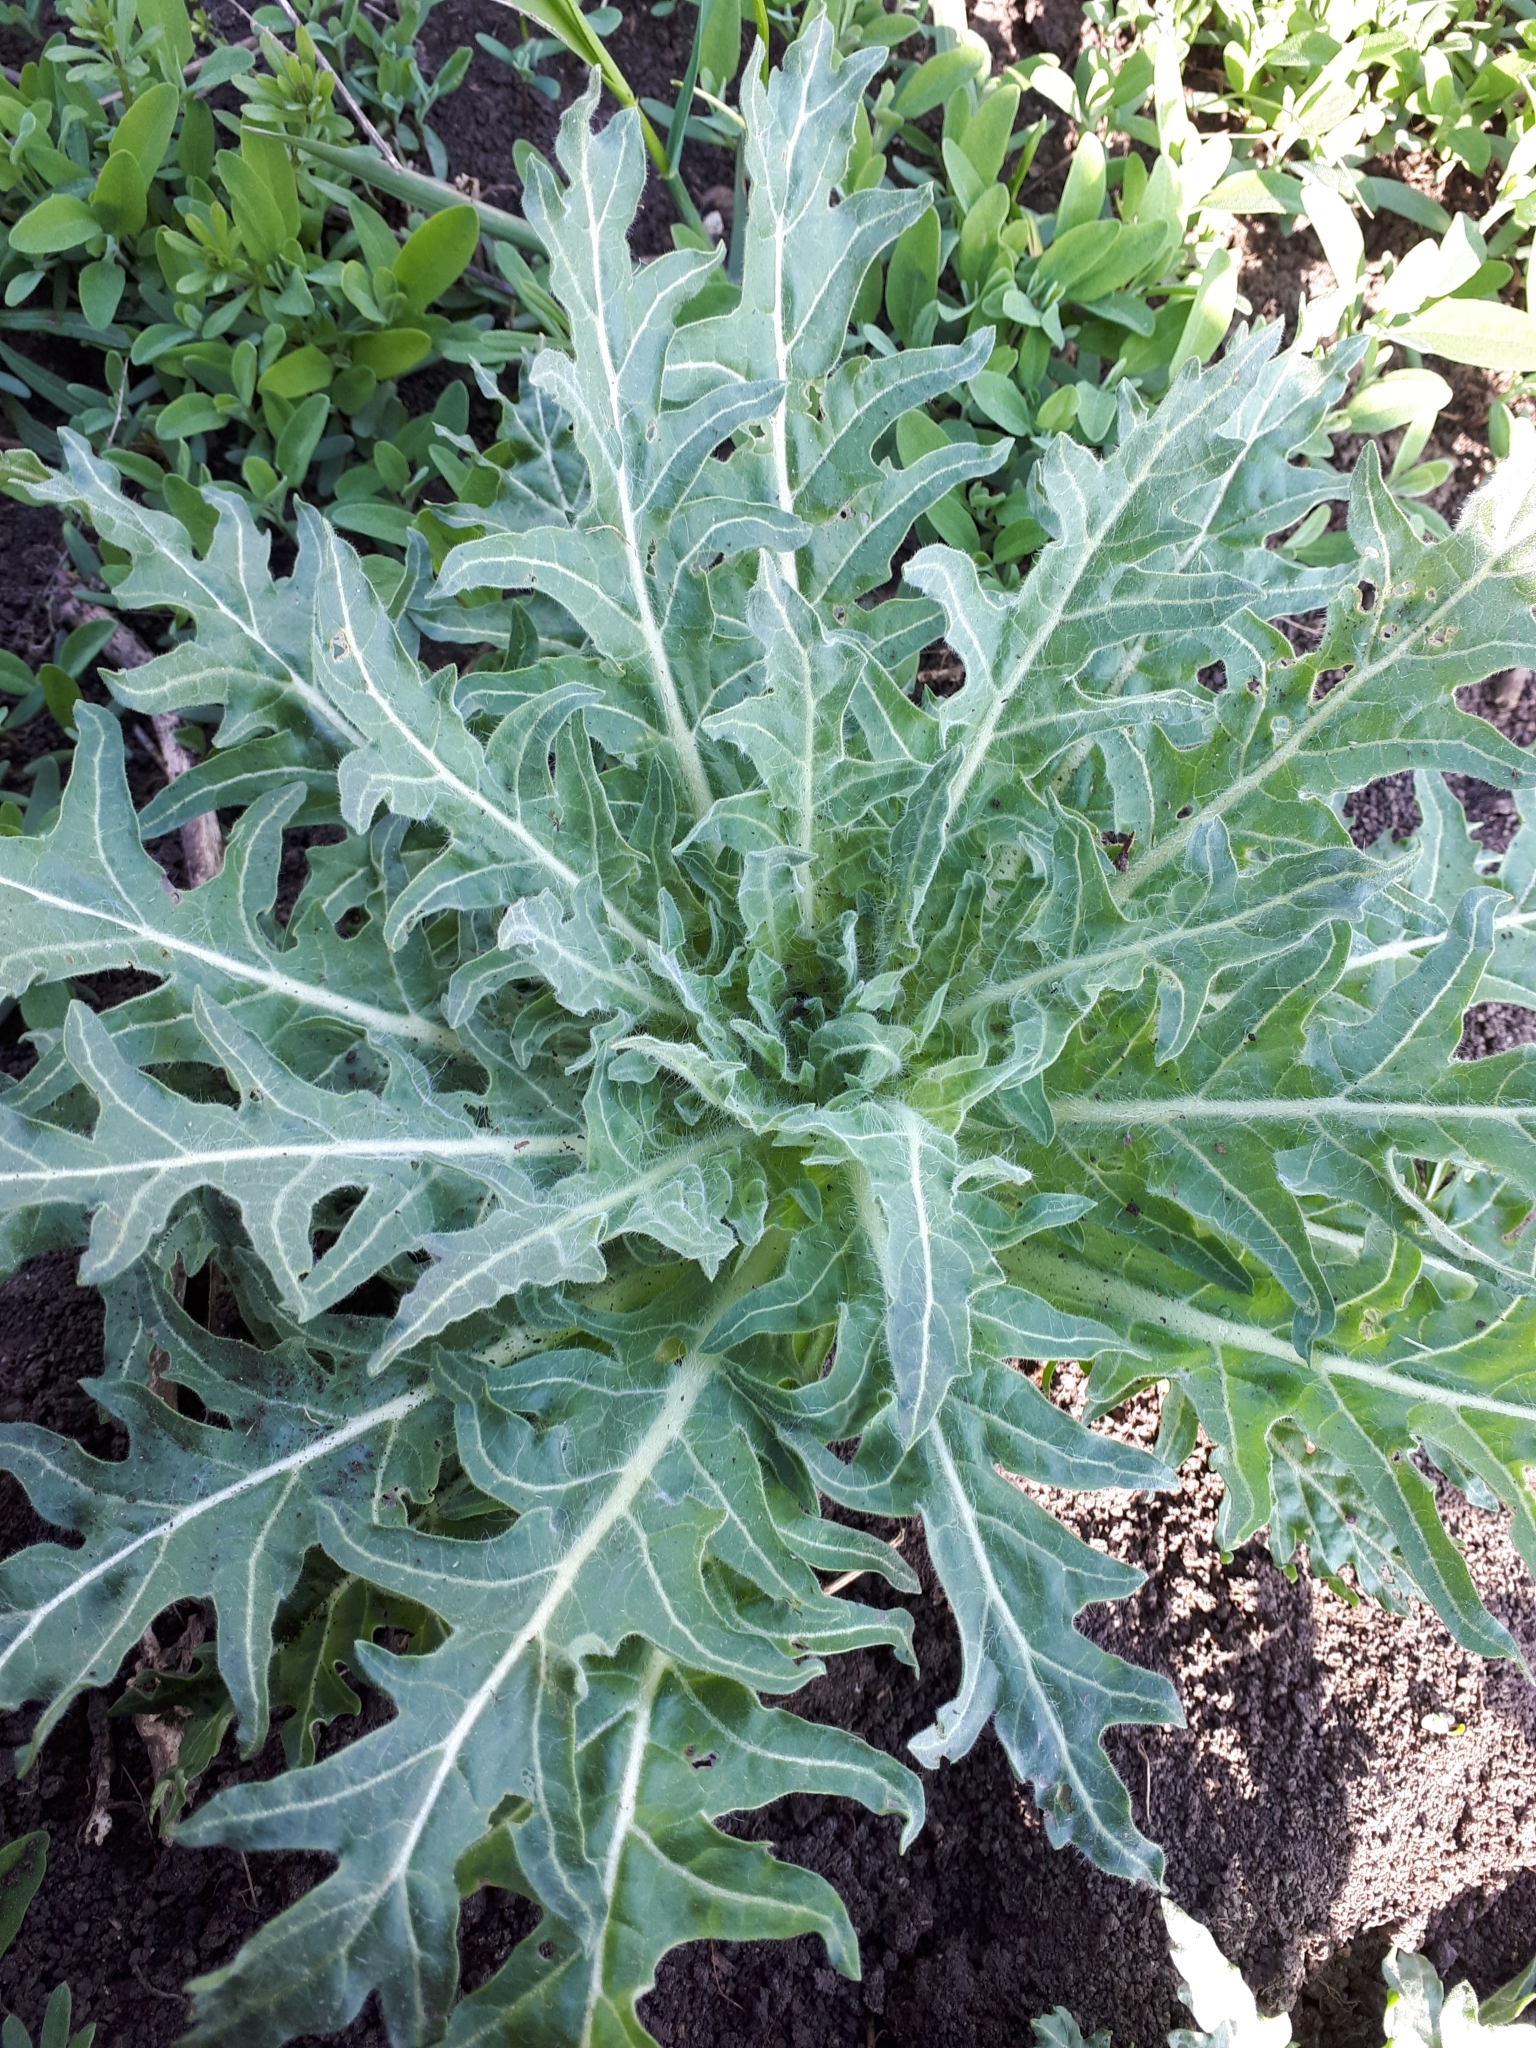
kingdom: Plantae
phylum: Tracheophyta
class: Magnoliopsida
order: Solanales
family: Solanaceae
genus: Hyoscyamus
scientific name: Hyoscyamus niger
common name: Henbane
